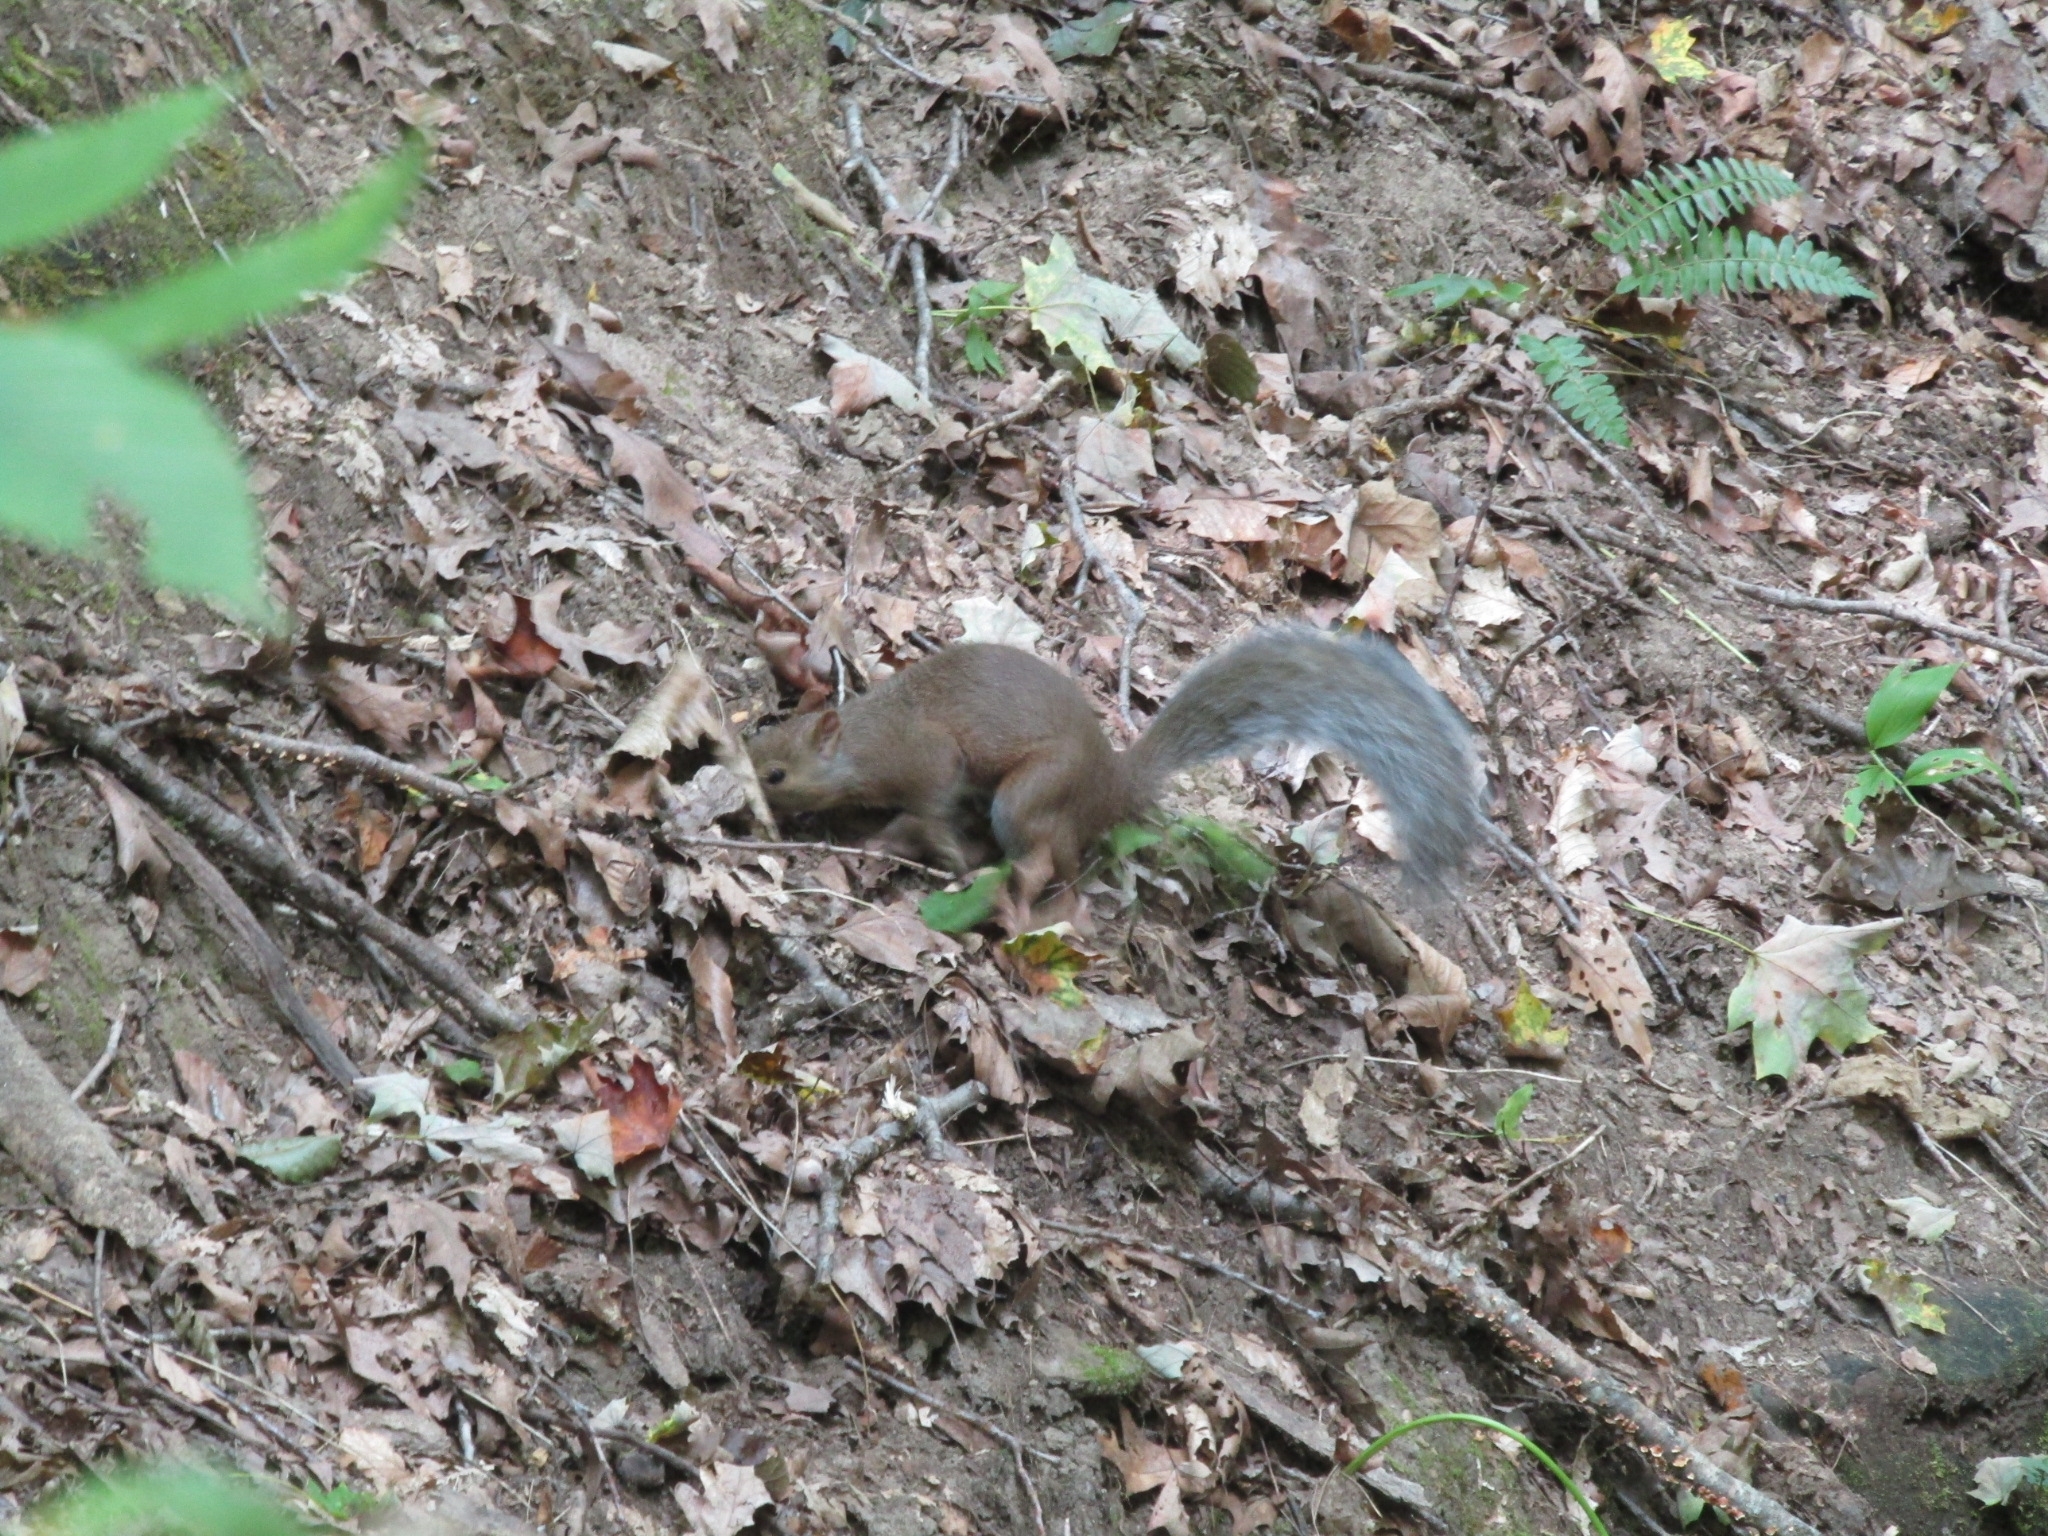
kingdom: Animalia
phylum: Chordata
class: Mammalia
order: Rodentia
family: Sciuridae
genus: Sciurus
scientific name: Sciurus carolinensis
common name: Eastern gray squirrel
